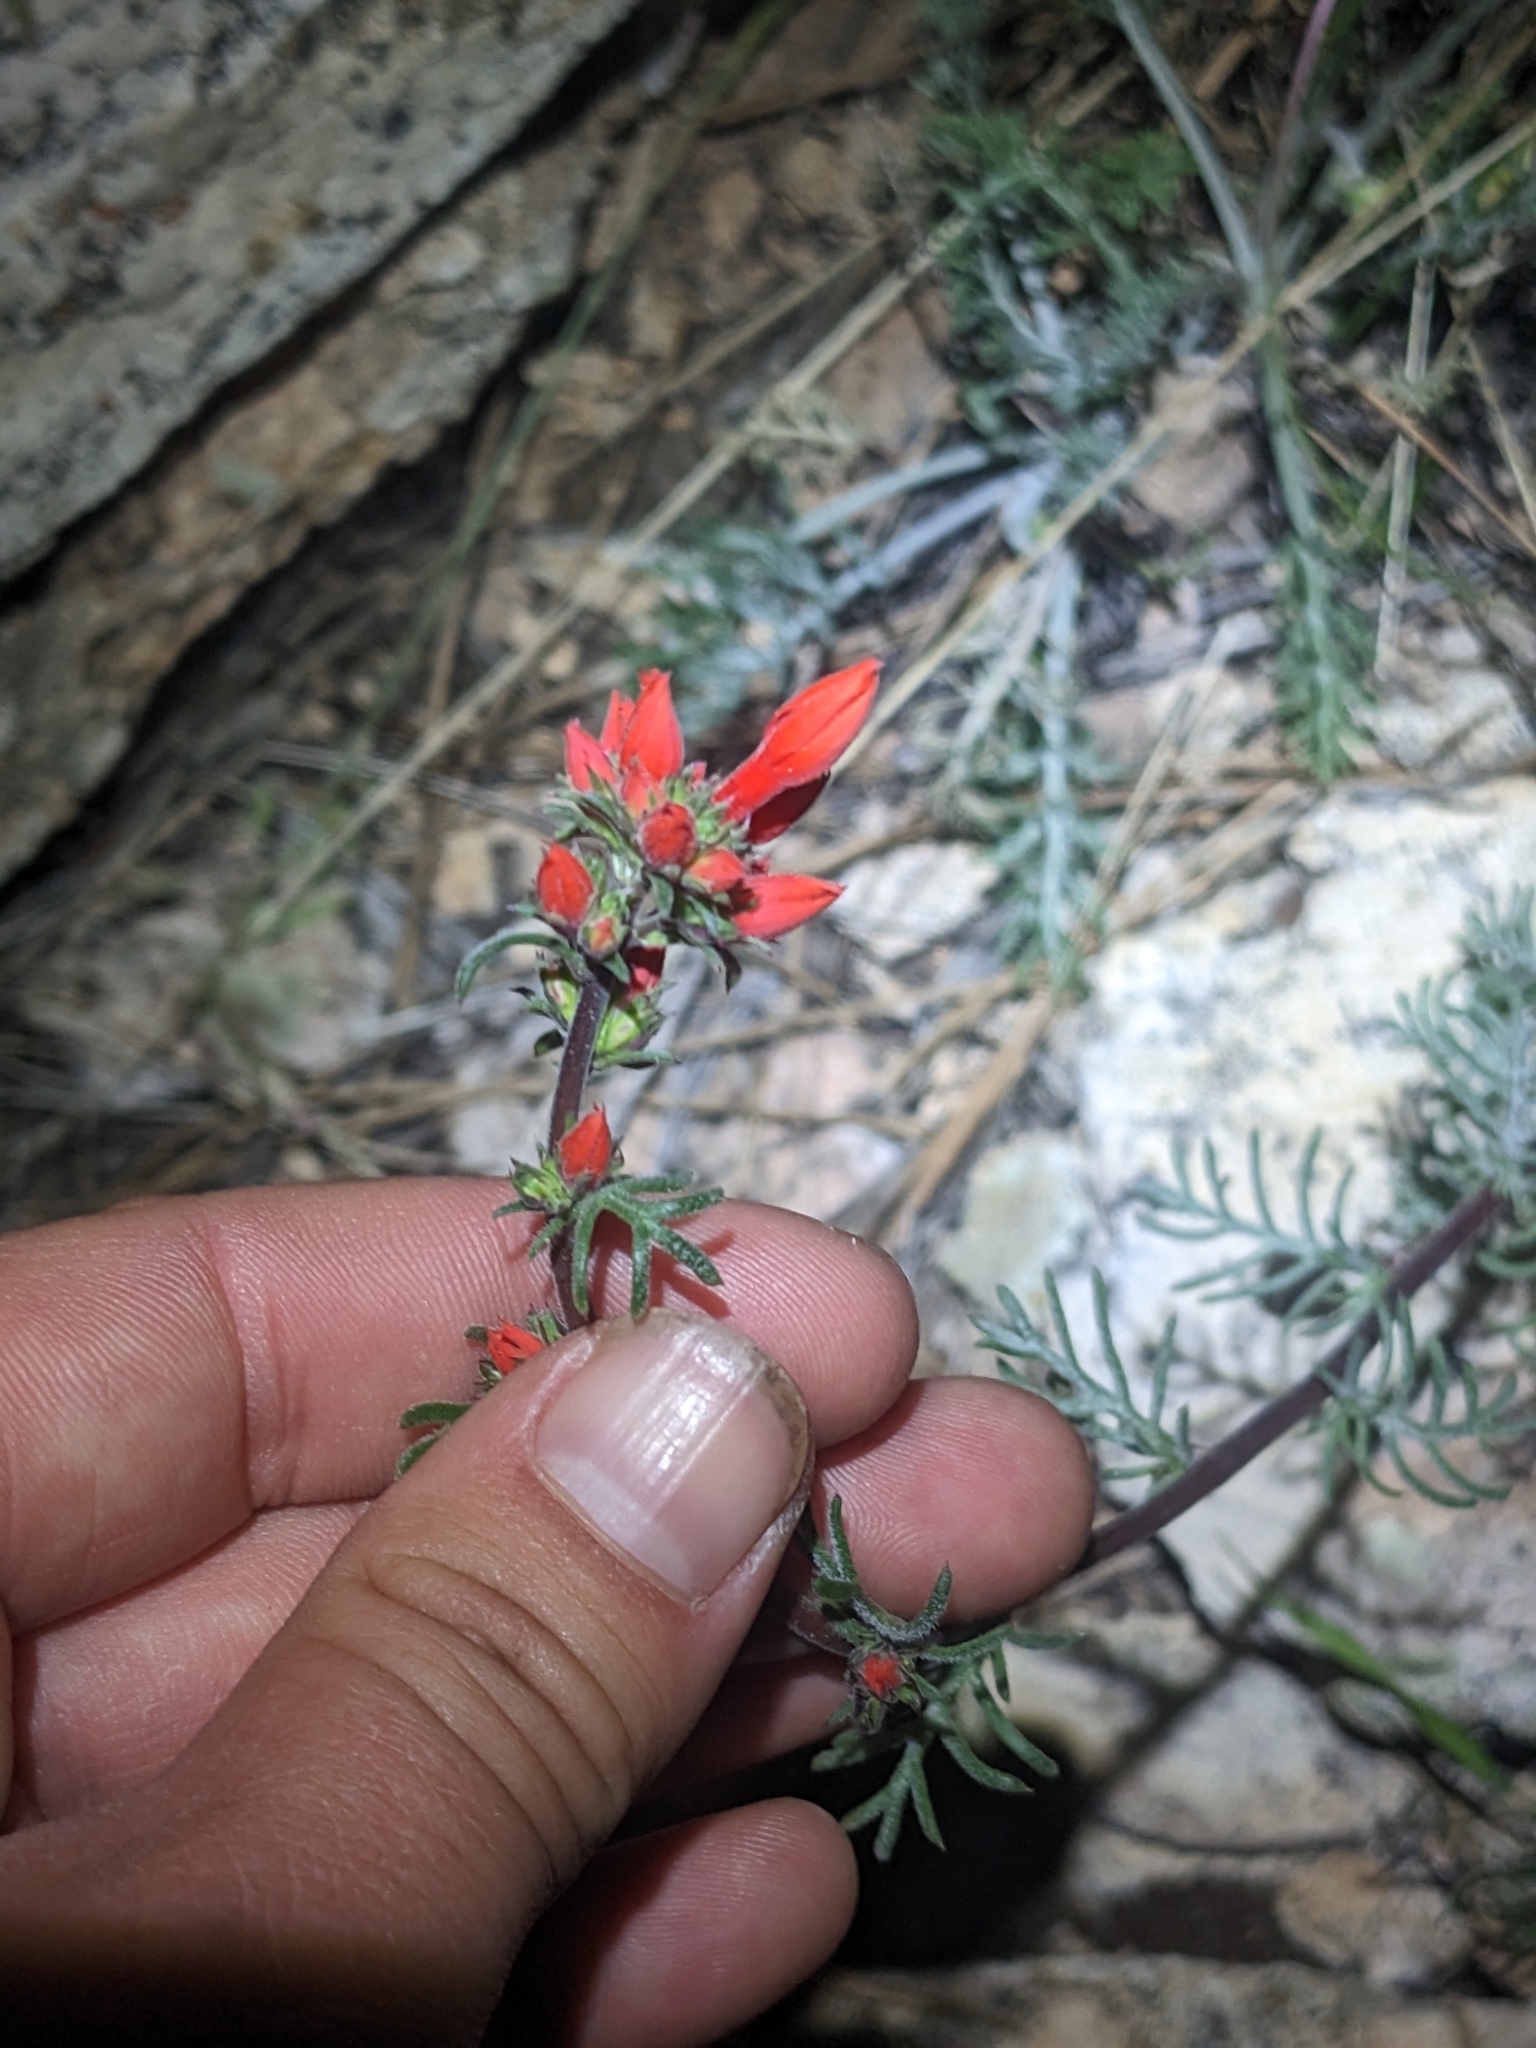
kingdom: Plantae
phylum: Tracheophyta
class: Magnoliopsida
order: Ericales
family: Polemoniaceae
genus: Ipomopsis
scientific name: Ipomopsis arizonica
